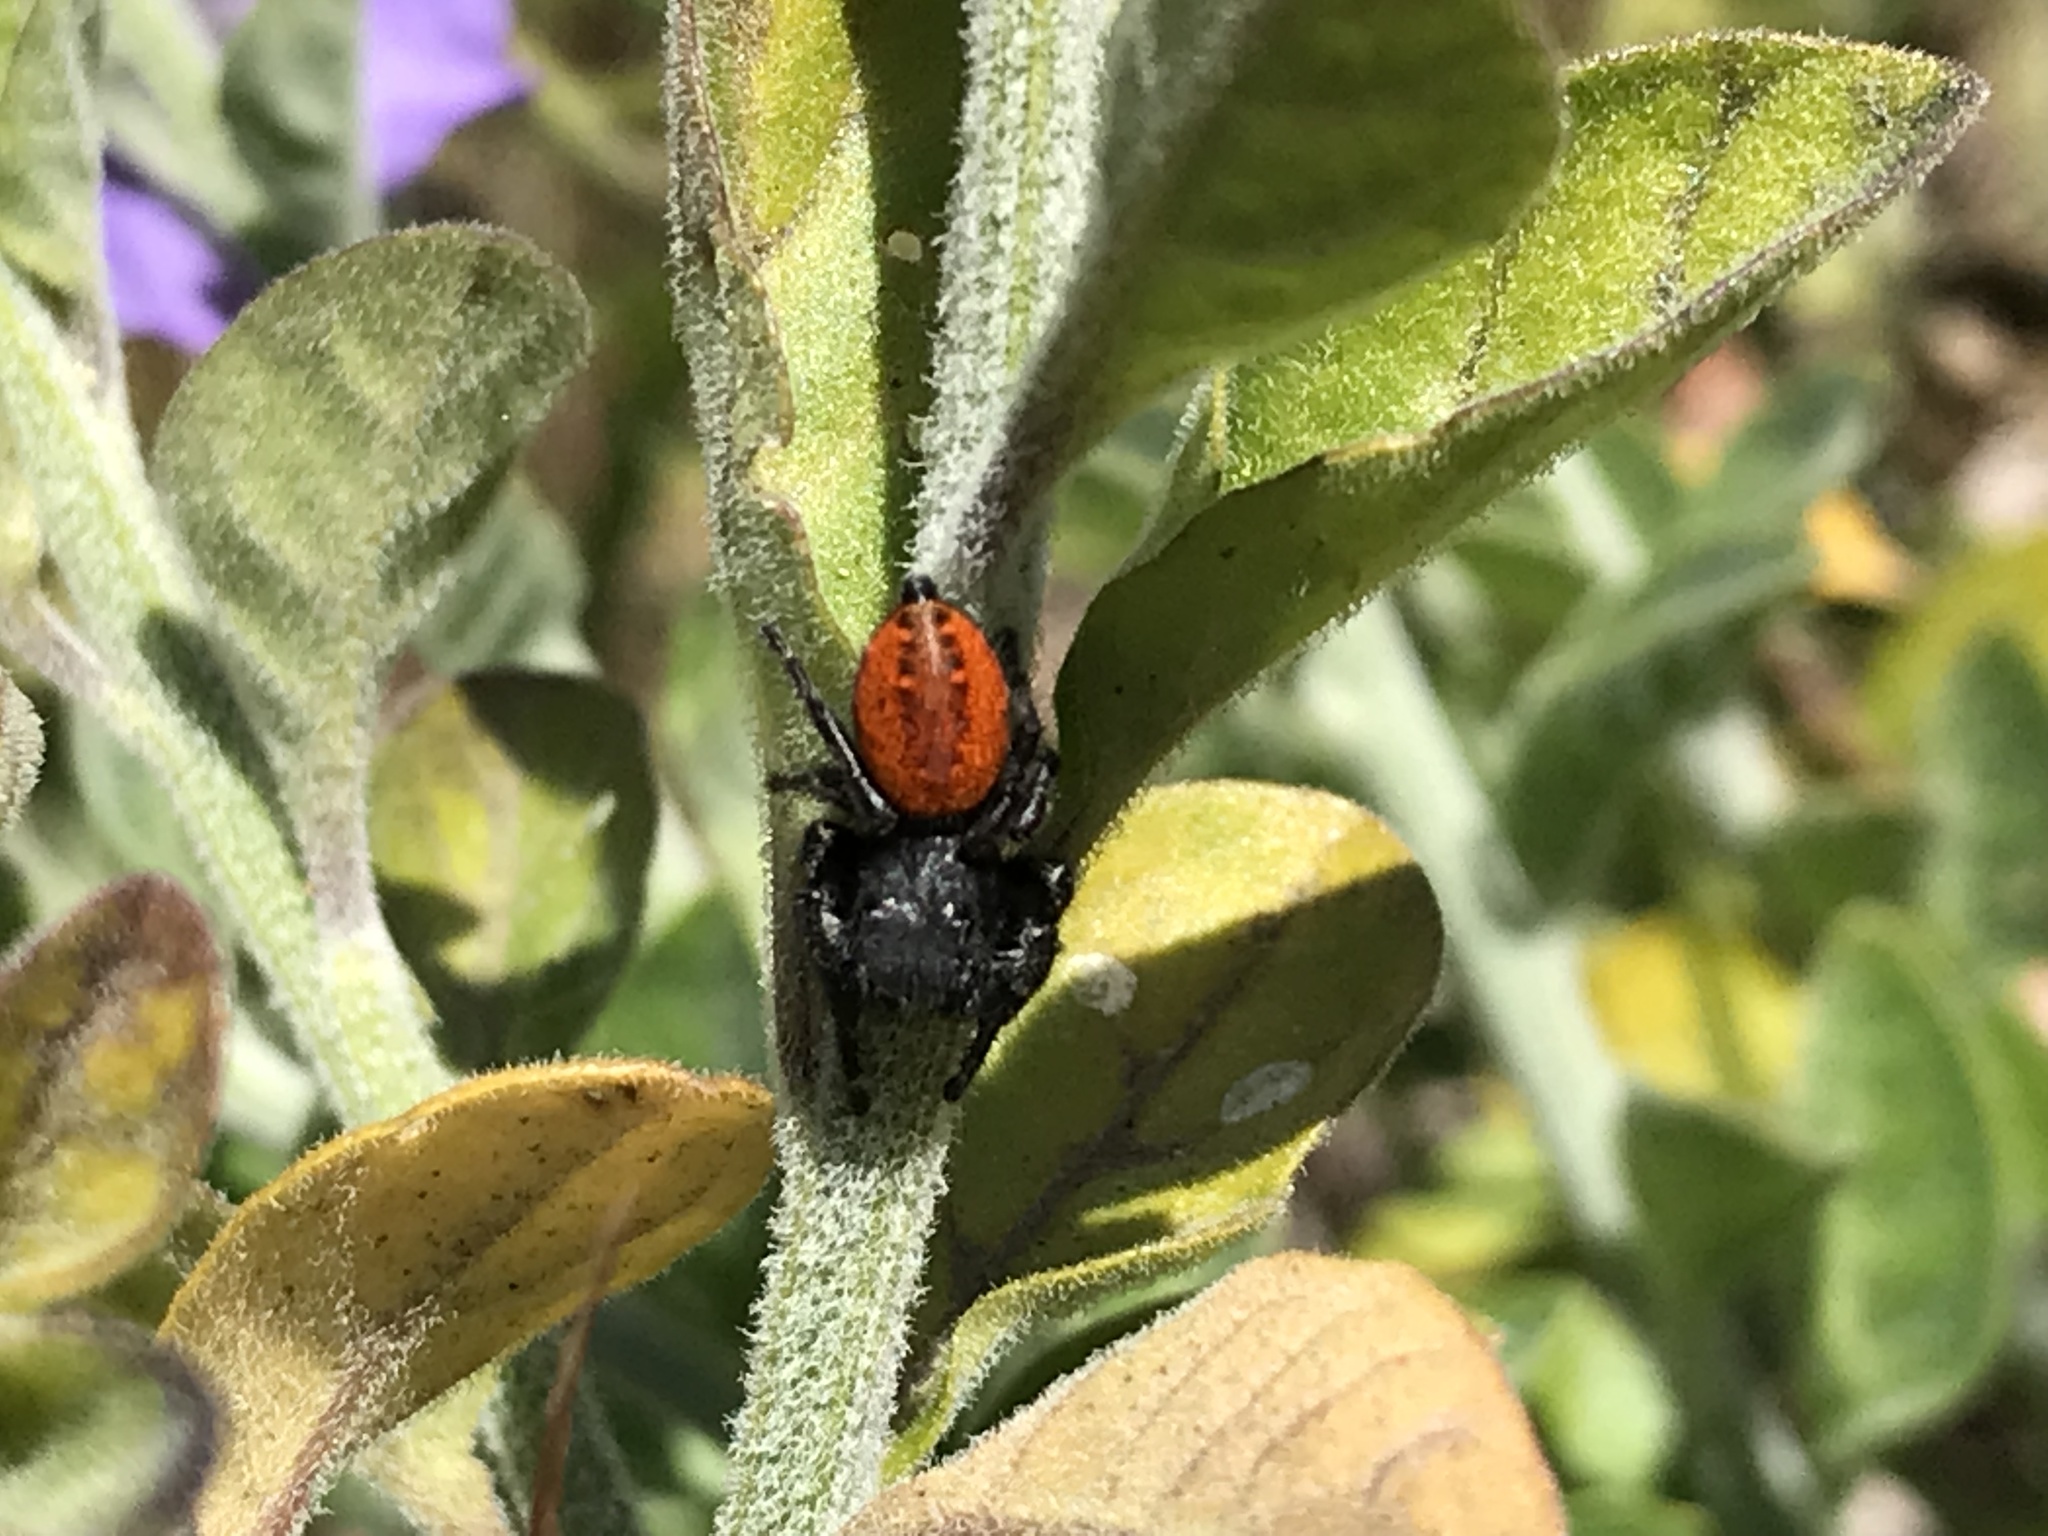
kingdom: Animalia
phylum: Arthropoda
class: Arachnida
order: Araneae
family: Salticidae
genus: Phidippus
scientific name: Phidippus johnsoni
